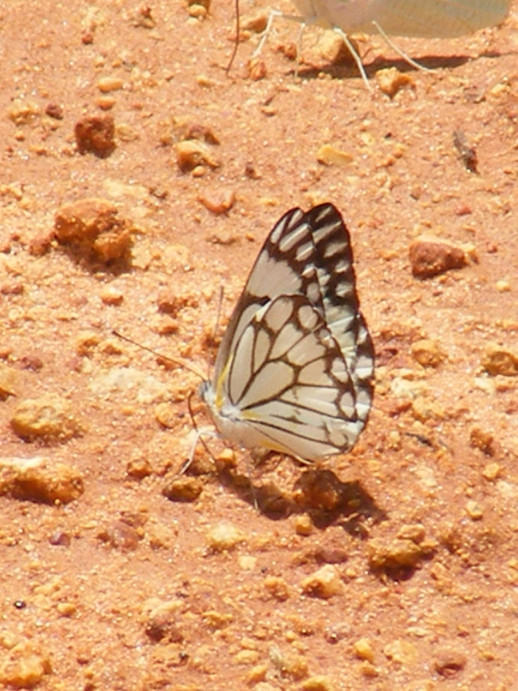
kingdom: Animalia
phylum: Arthropoda
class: Insecta
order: Lepidoptera
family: Pieridae
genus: Belenois
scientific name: Belenois aurota
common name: Brown-veined white
